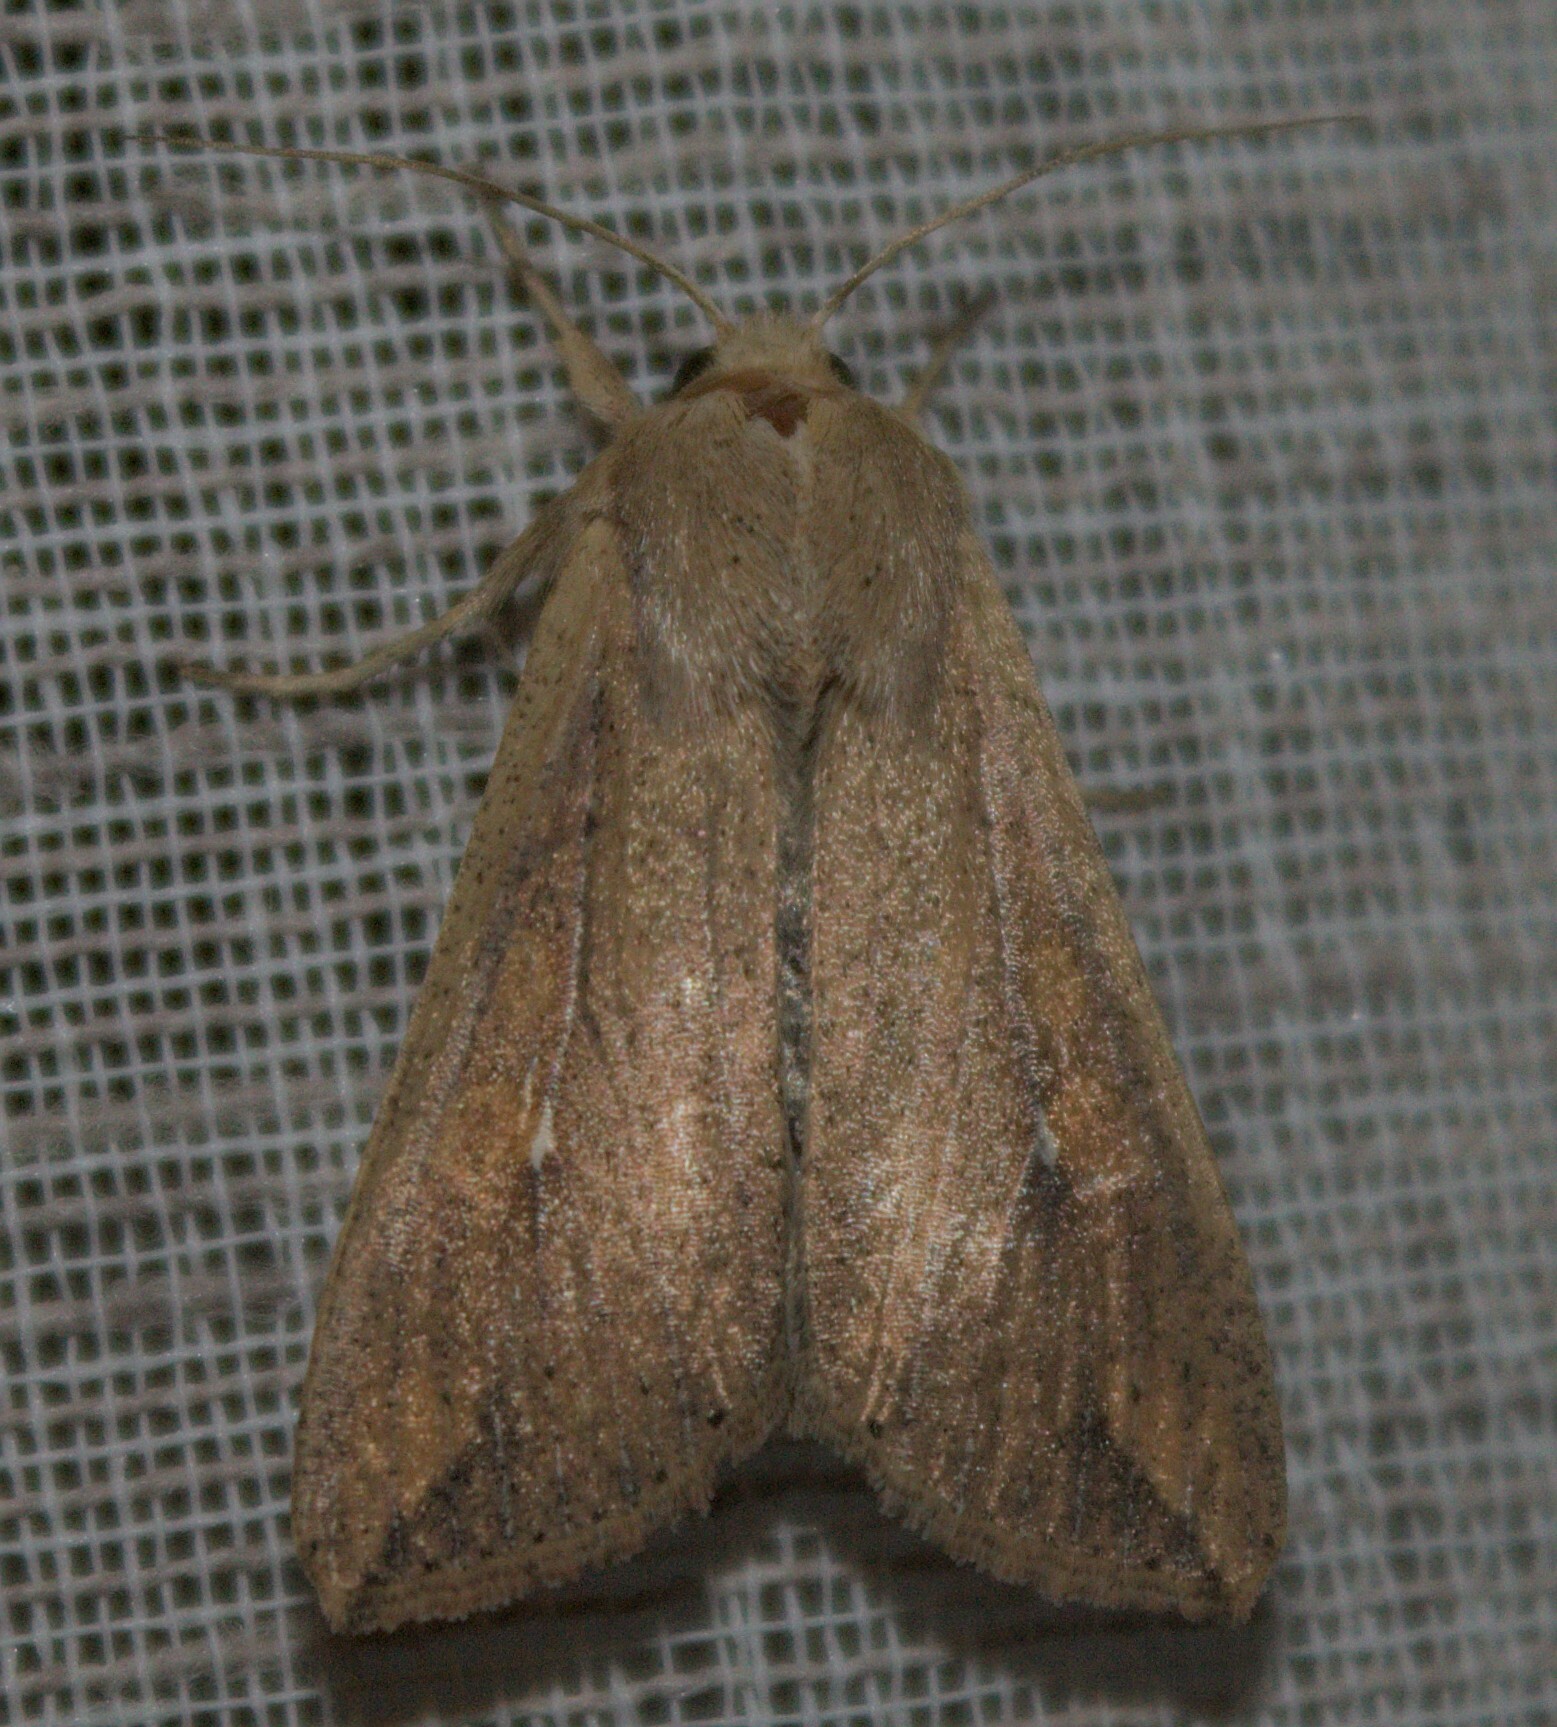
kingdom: Animalia
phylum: Arthropoda
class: Insecta
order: Lepidoptera
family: Noctuidae
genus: Mythimna
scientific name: Mythimna unipuncta
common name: White-speck
